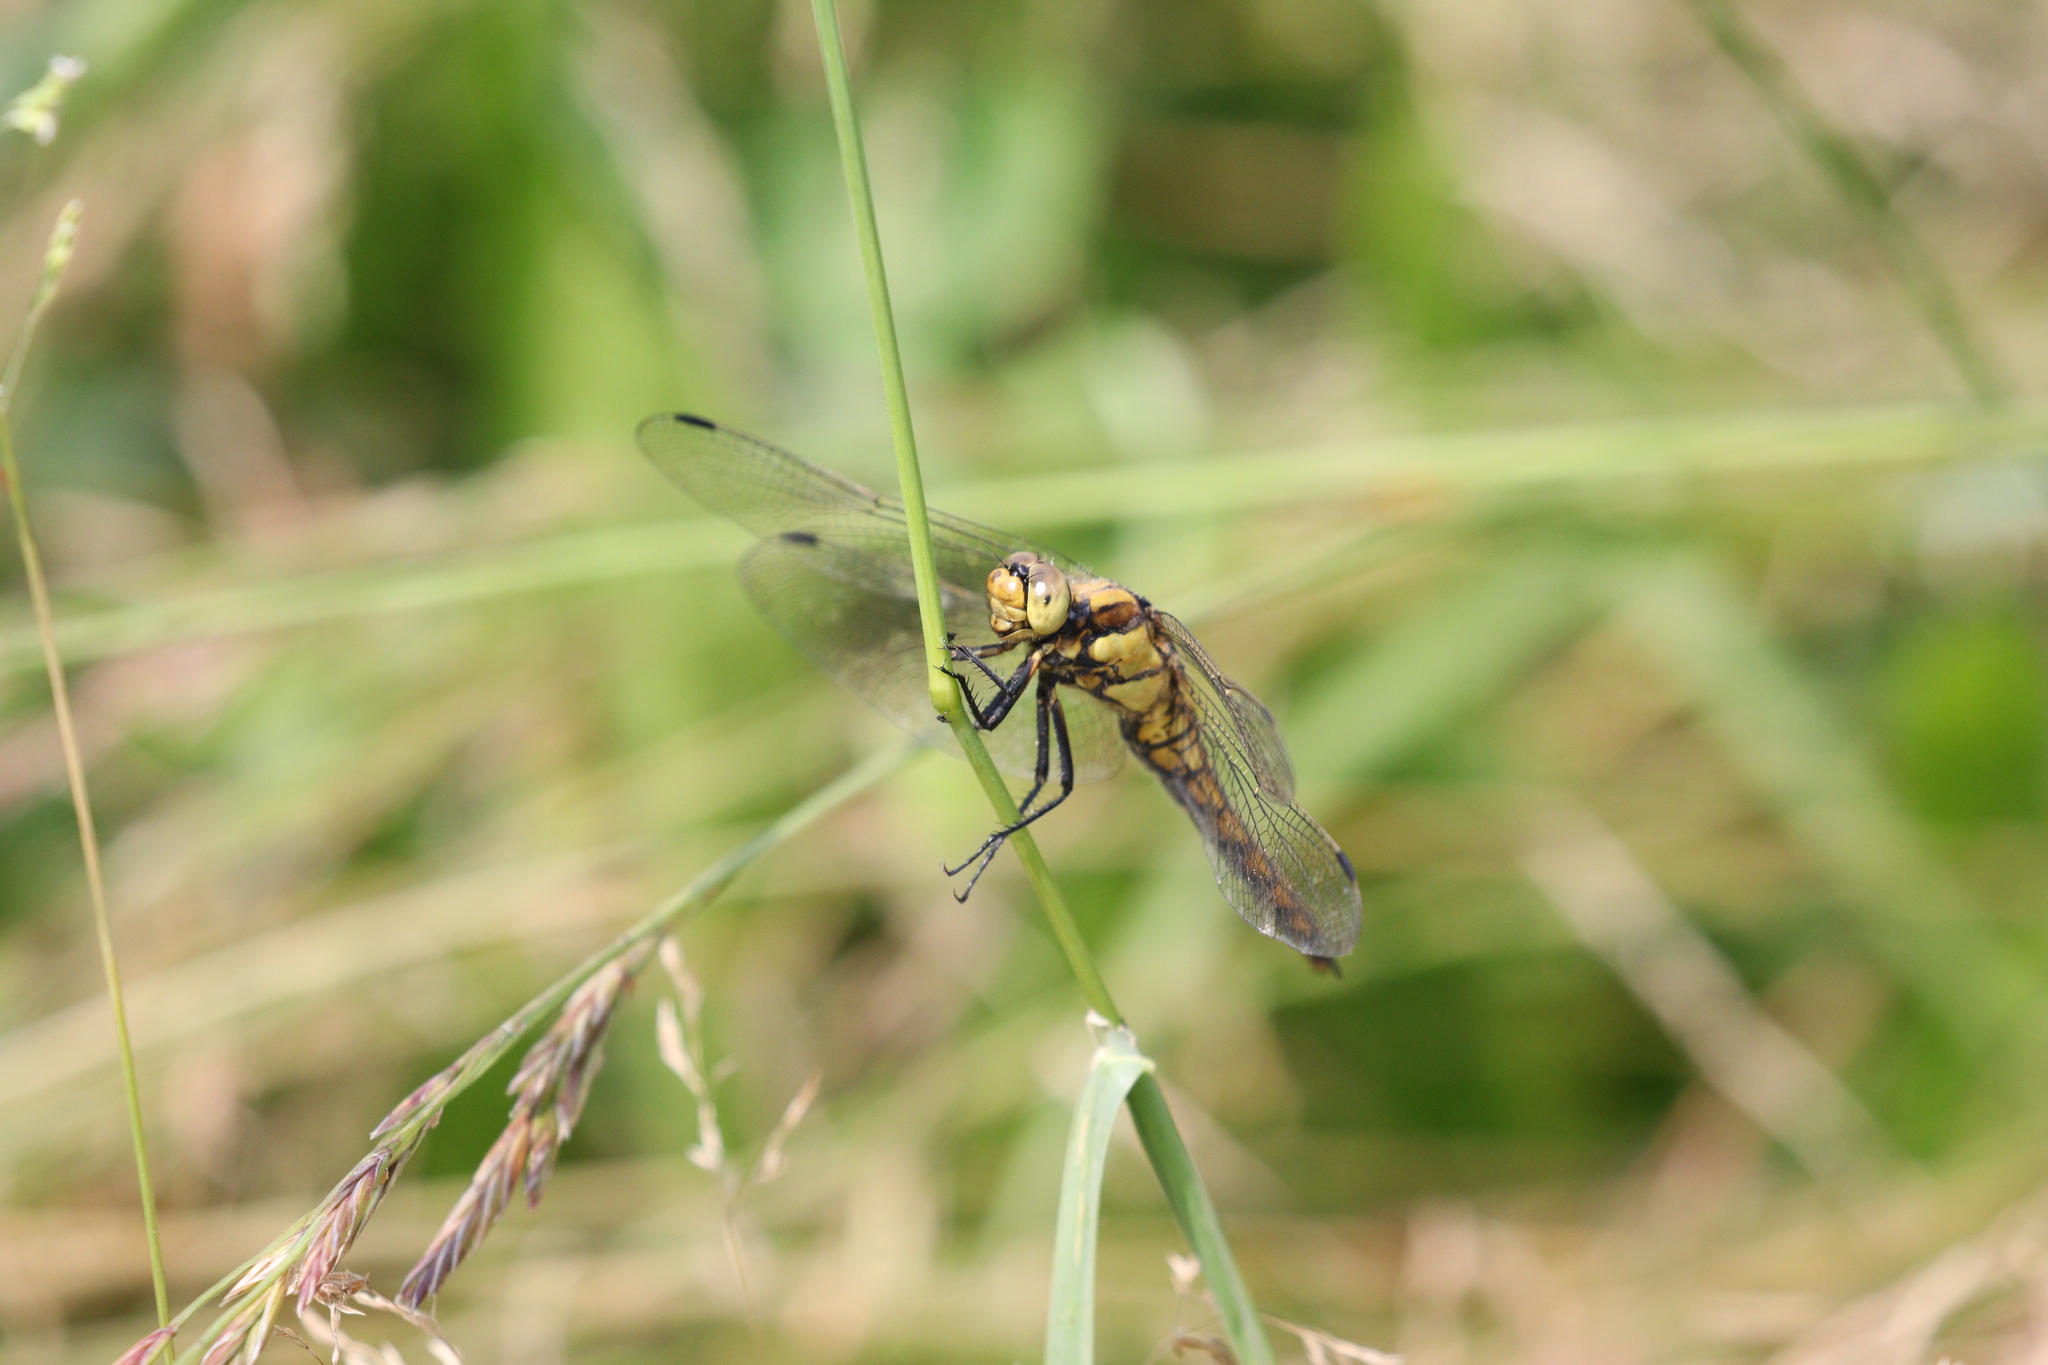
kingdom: Animalia
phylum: Arthropoda
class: Insecta
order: Odonata
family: Libellulidae
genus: Orthetrum
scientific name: Orthetrum cancellatum
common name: Black-tailed skimmer
